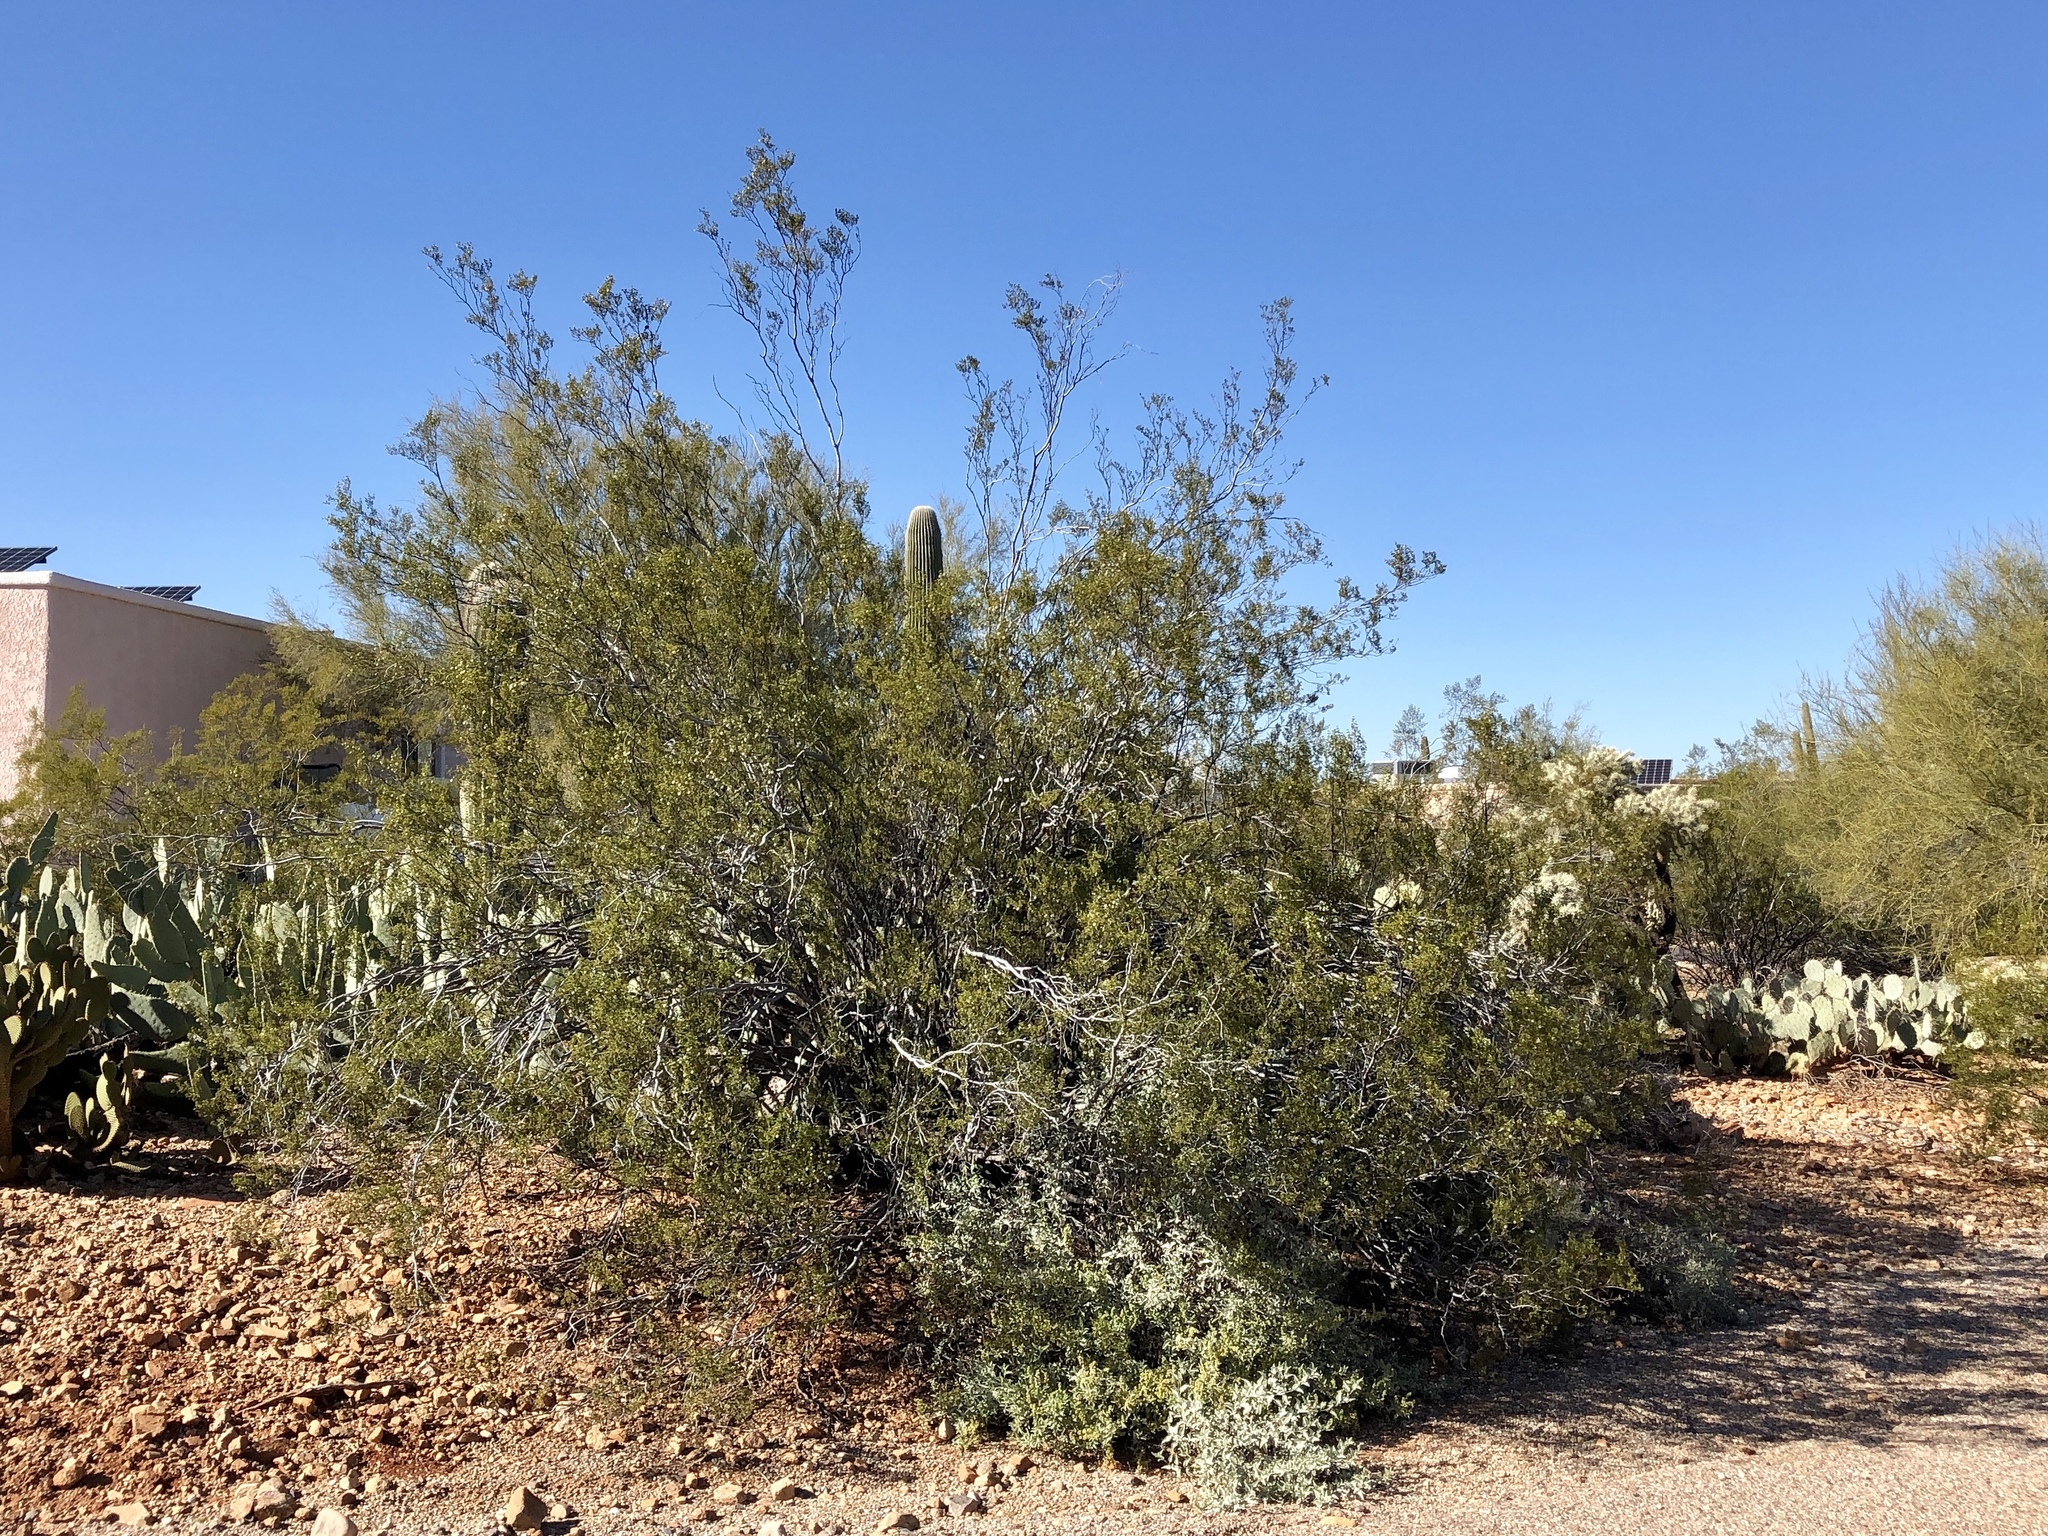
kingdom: Plantae
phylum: Tracheophyta
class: Magnoliopsida
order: Zygophyllales
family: Zygophyllaceae
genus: Larrea
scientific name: Larrea tridentata
